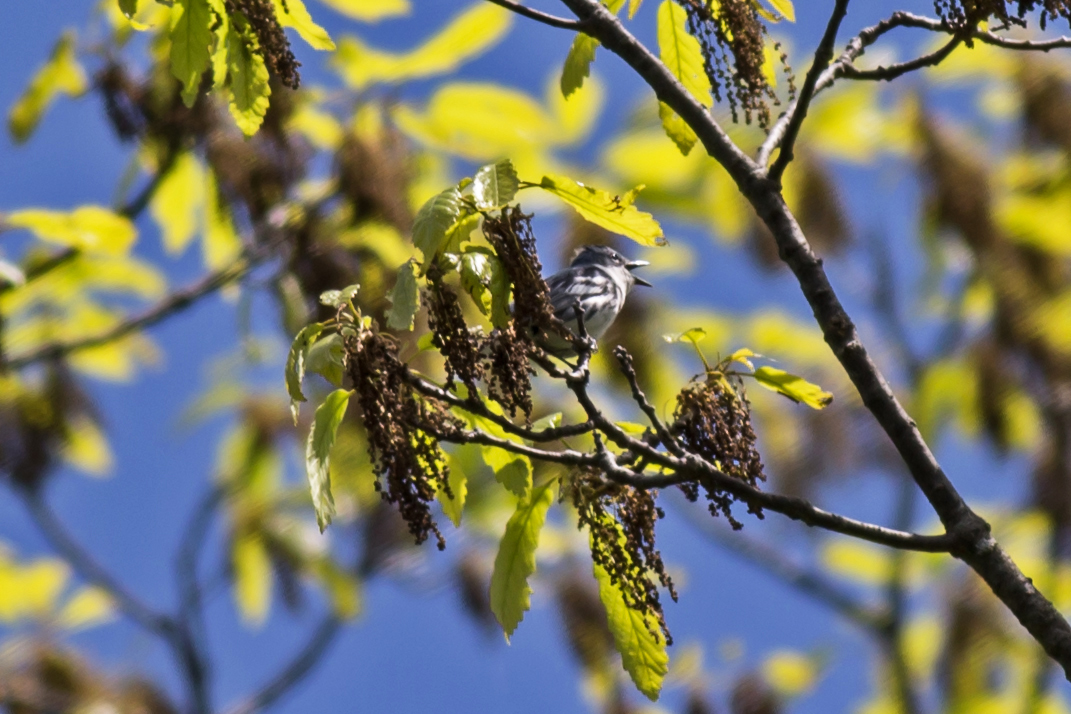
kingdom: Animalia
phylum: Chordata
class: Aves
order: Passeriformes
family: Parulidae
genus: Setophaga
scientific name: Setophaga cerulea
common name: Cerulean warbler
